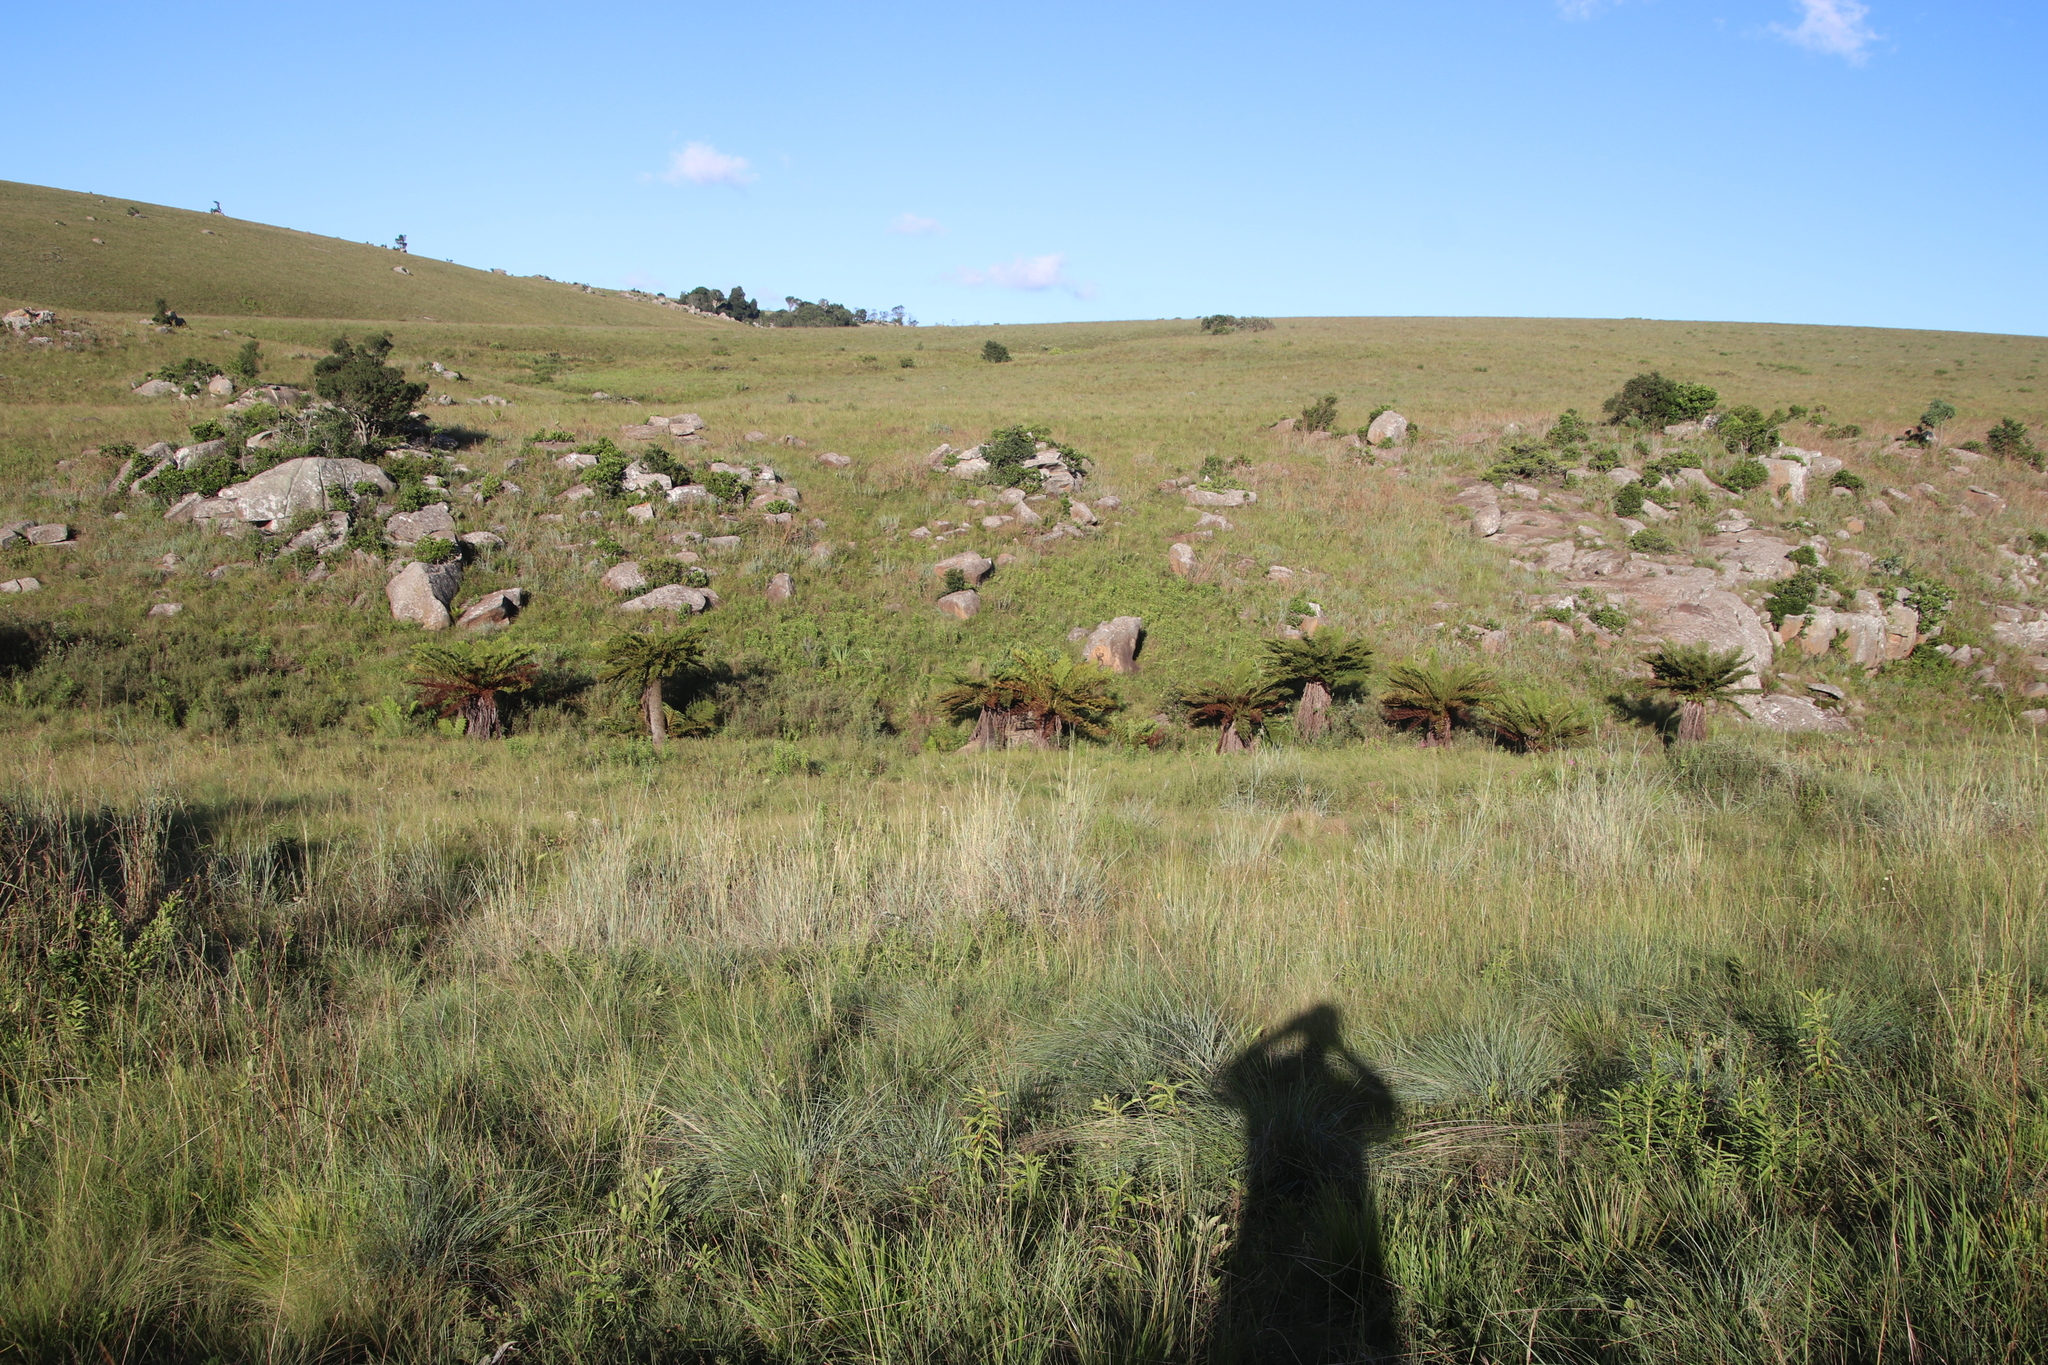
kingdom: Plantae
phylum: Tracheophyta
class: Polypodiopsida
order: Cyatheales
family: Cyatheaceae
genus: Alsophila
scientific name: Alsophila dregei
